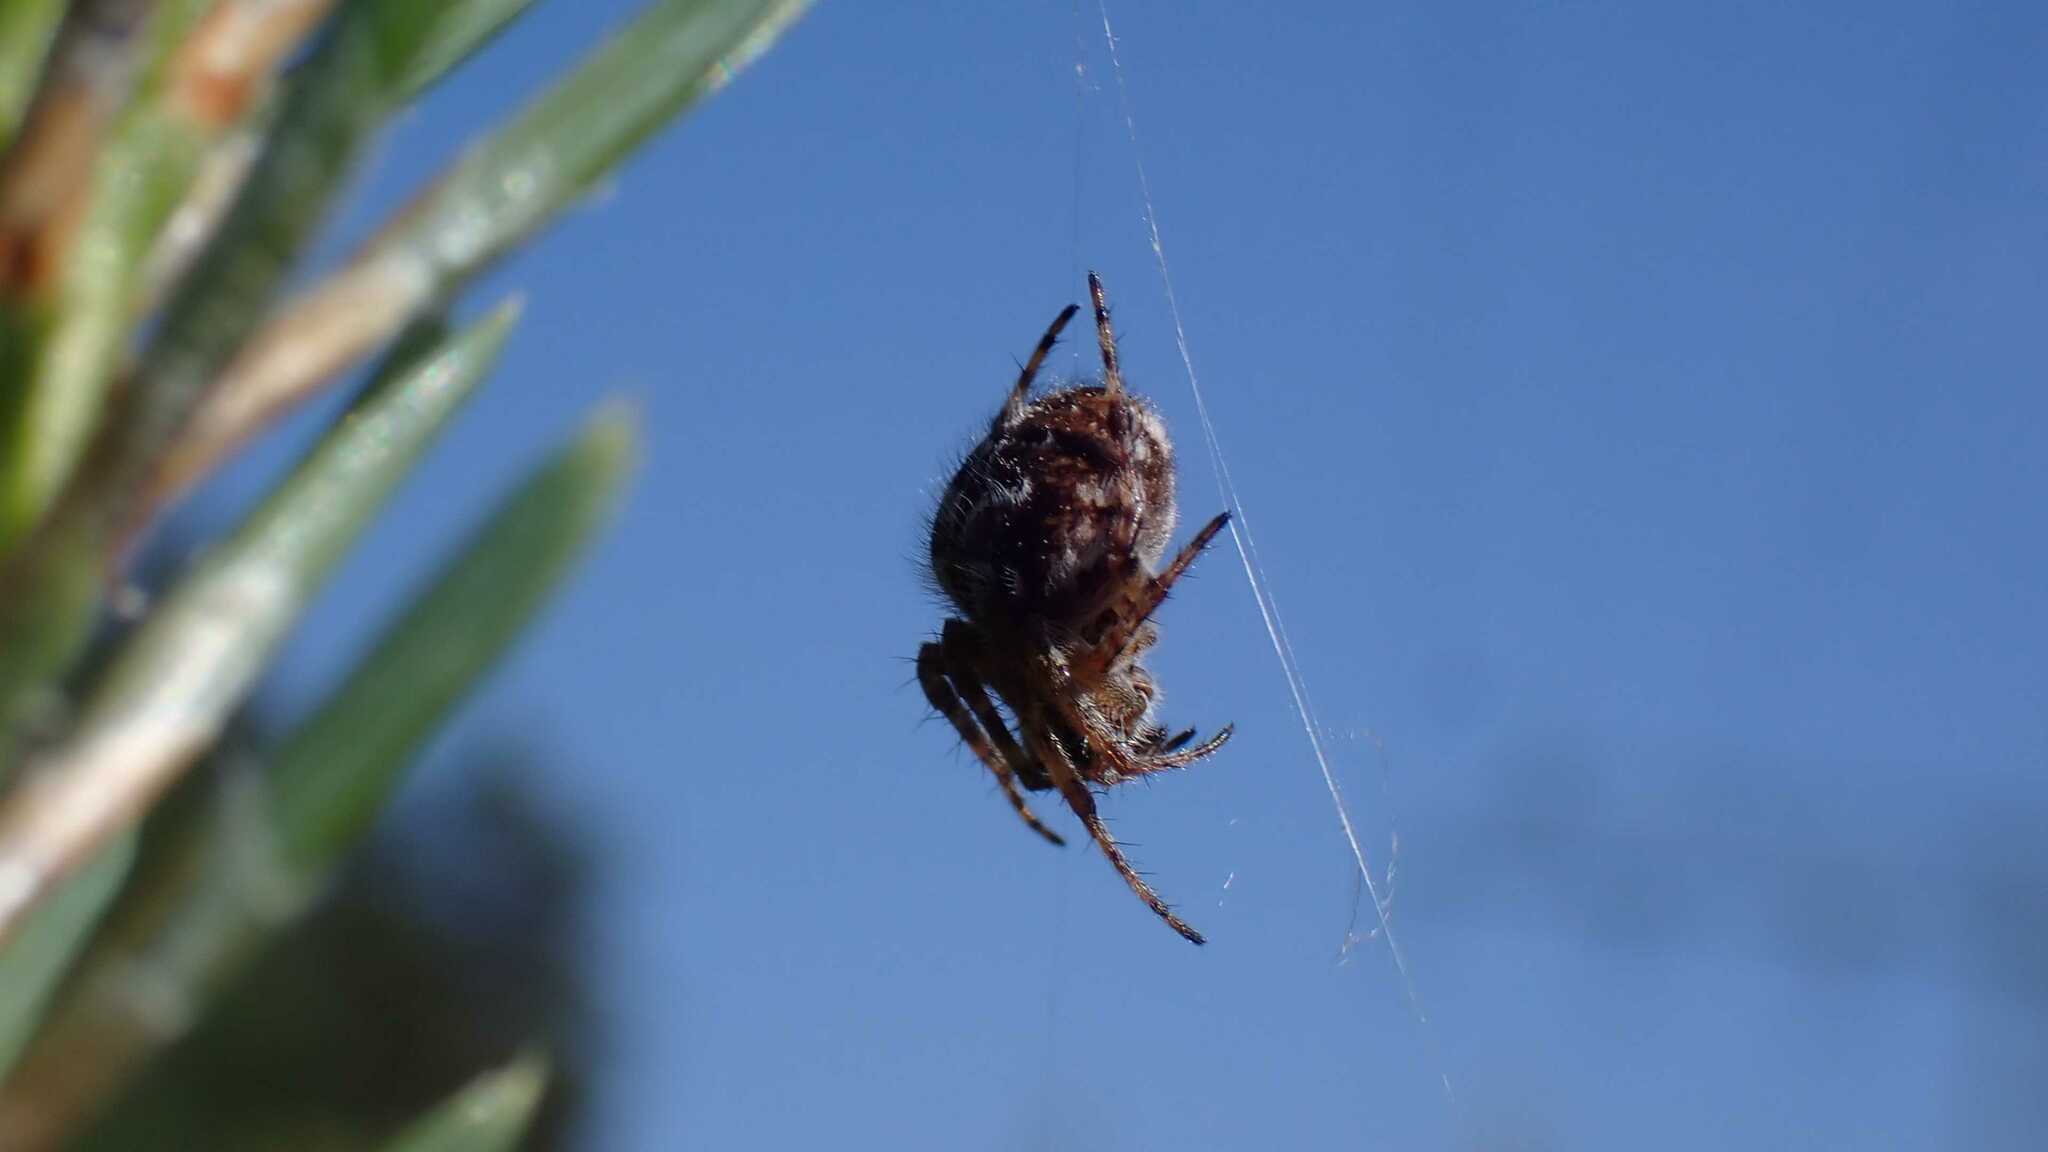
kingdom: Animalia
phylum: Arthropoda
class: Arachnida
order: Araneae
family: Araneidae
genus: Agalenatea
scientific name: Agalenatea redii
